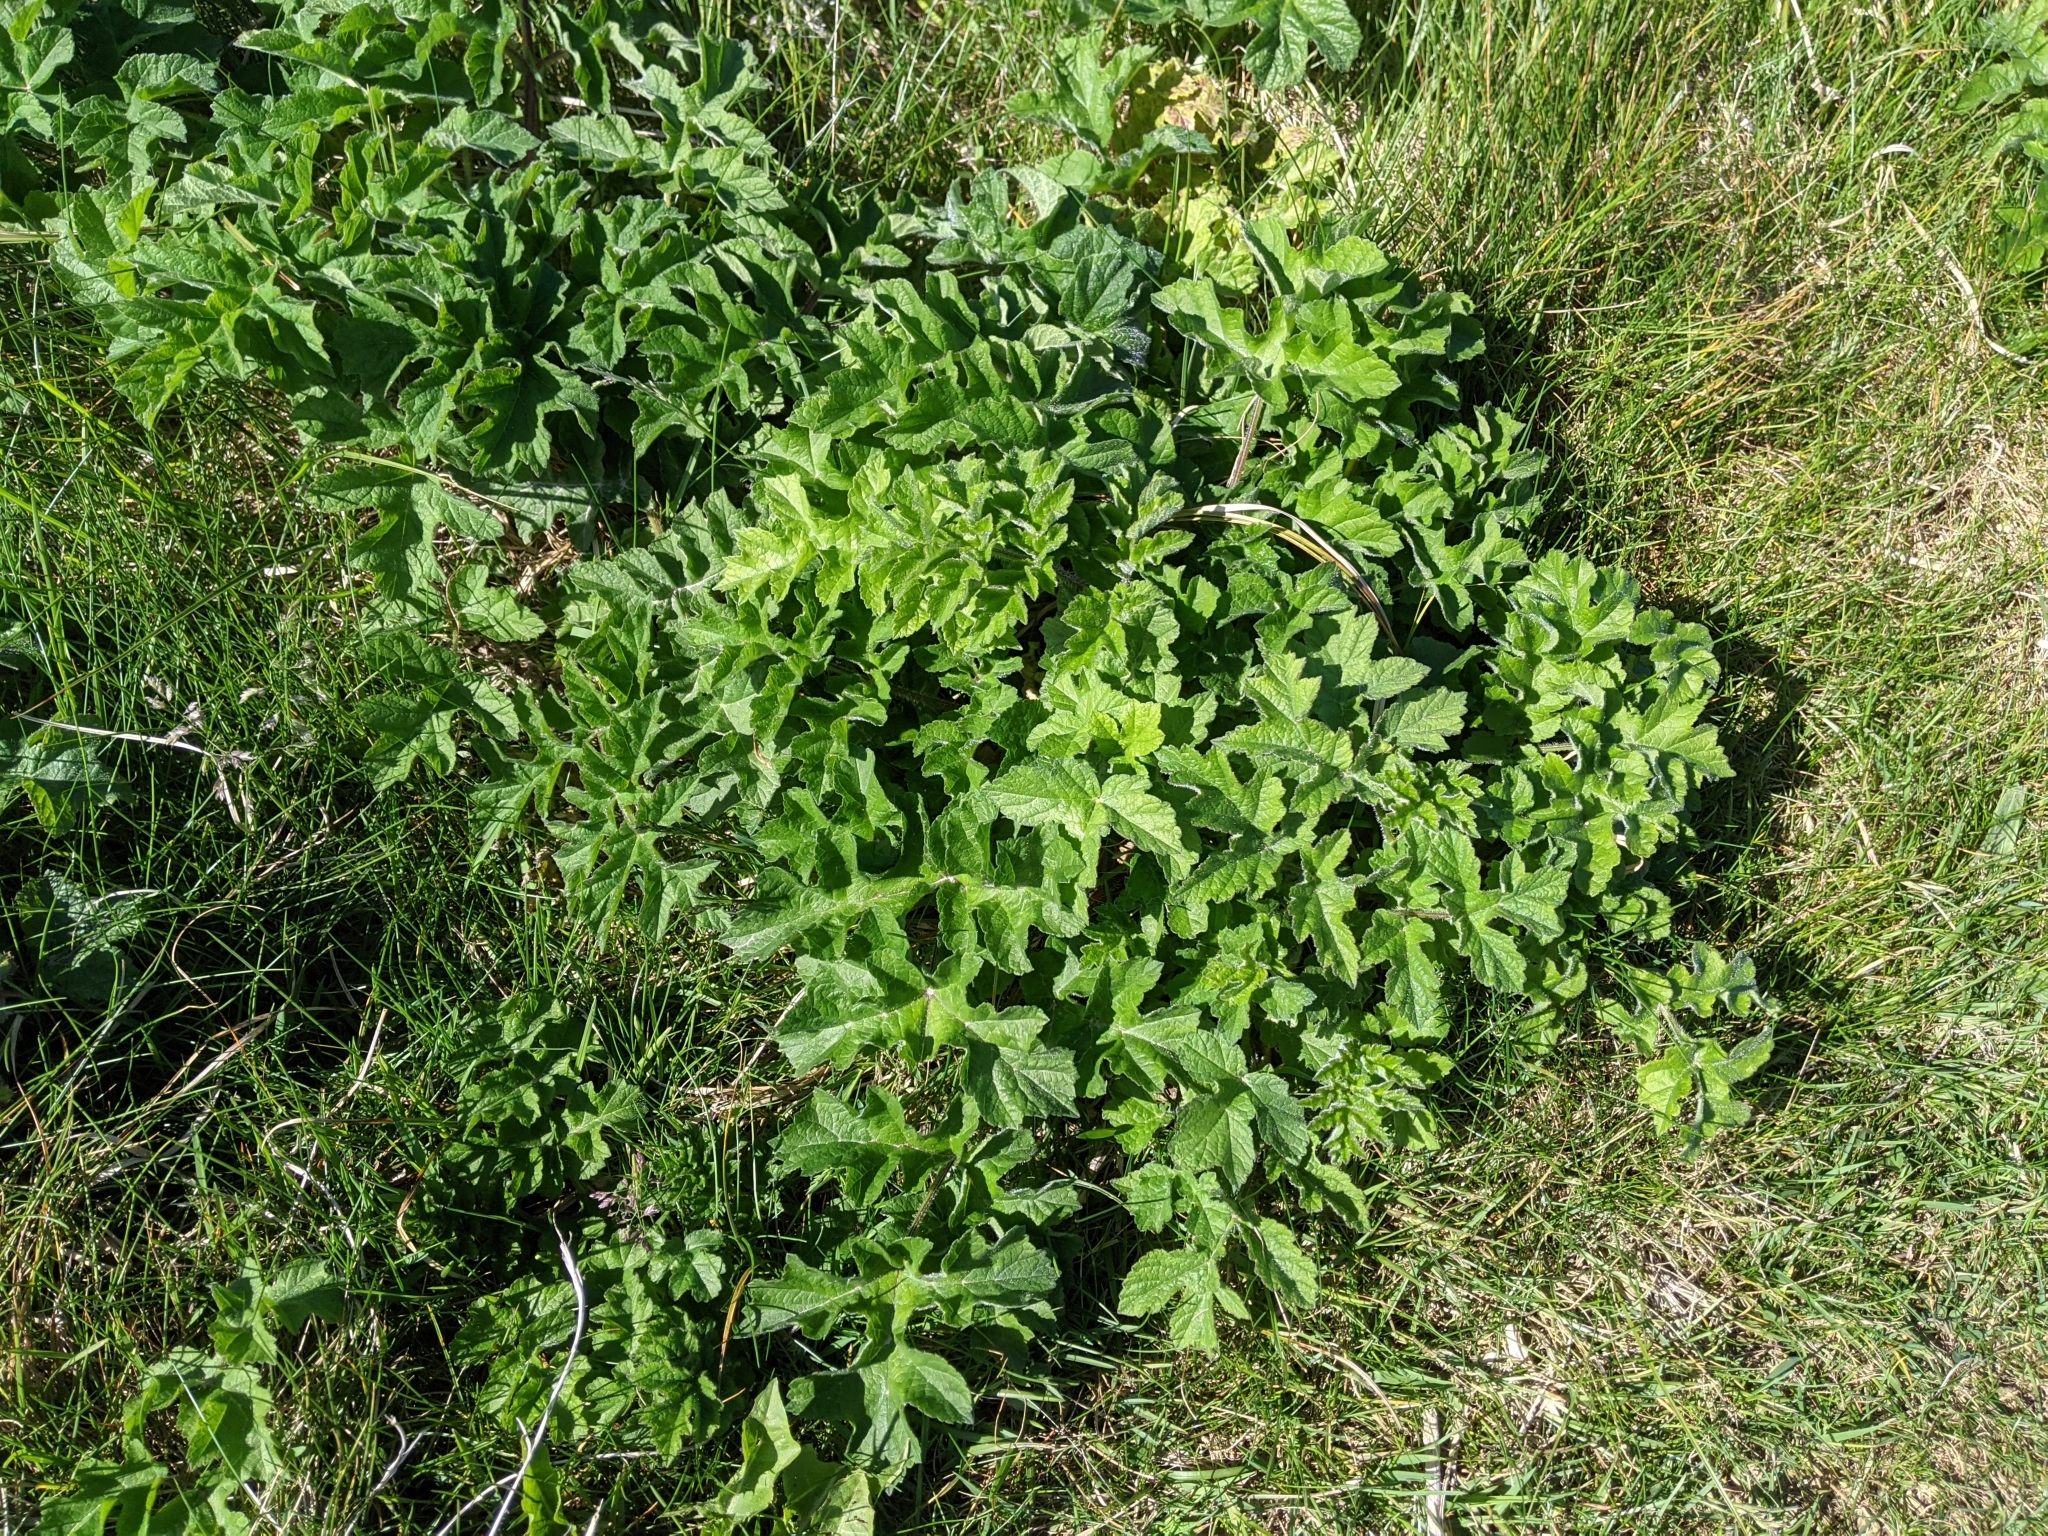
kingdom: Plantae
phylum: Tracheophyta
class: Magnoliopsida
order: Apiales
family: Apiaceae
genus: Heracleum
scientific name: Heracleum sphondylium
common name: Hogweed
